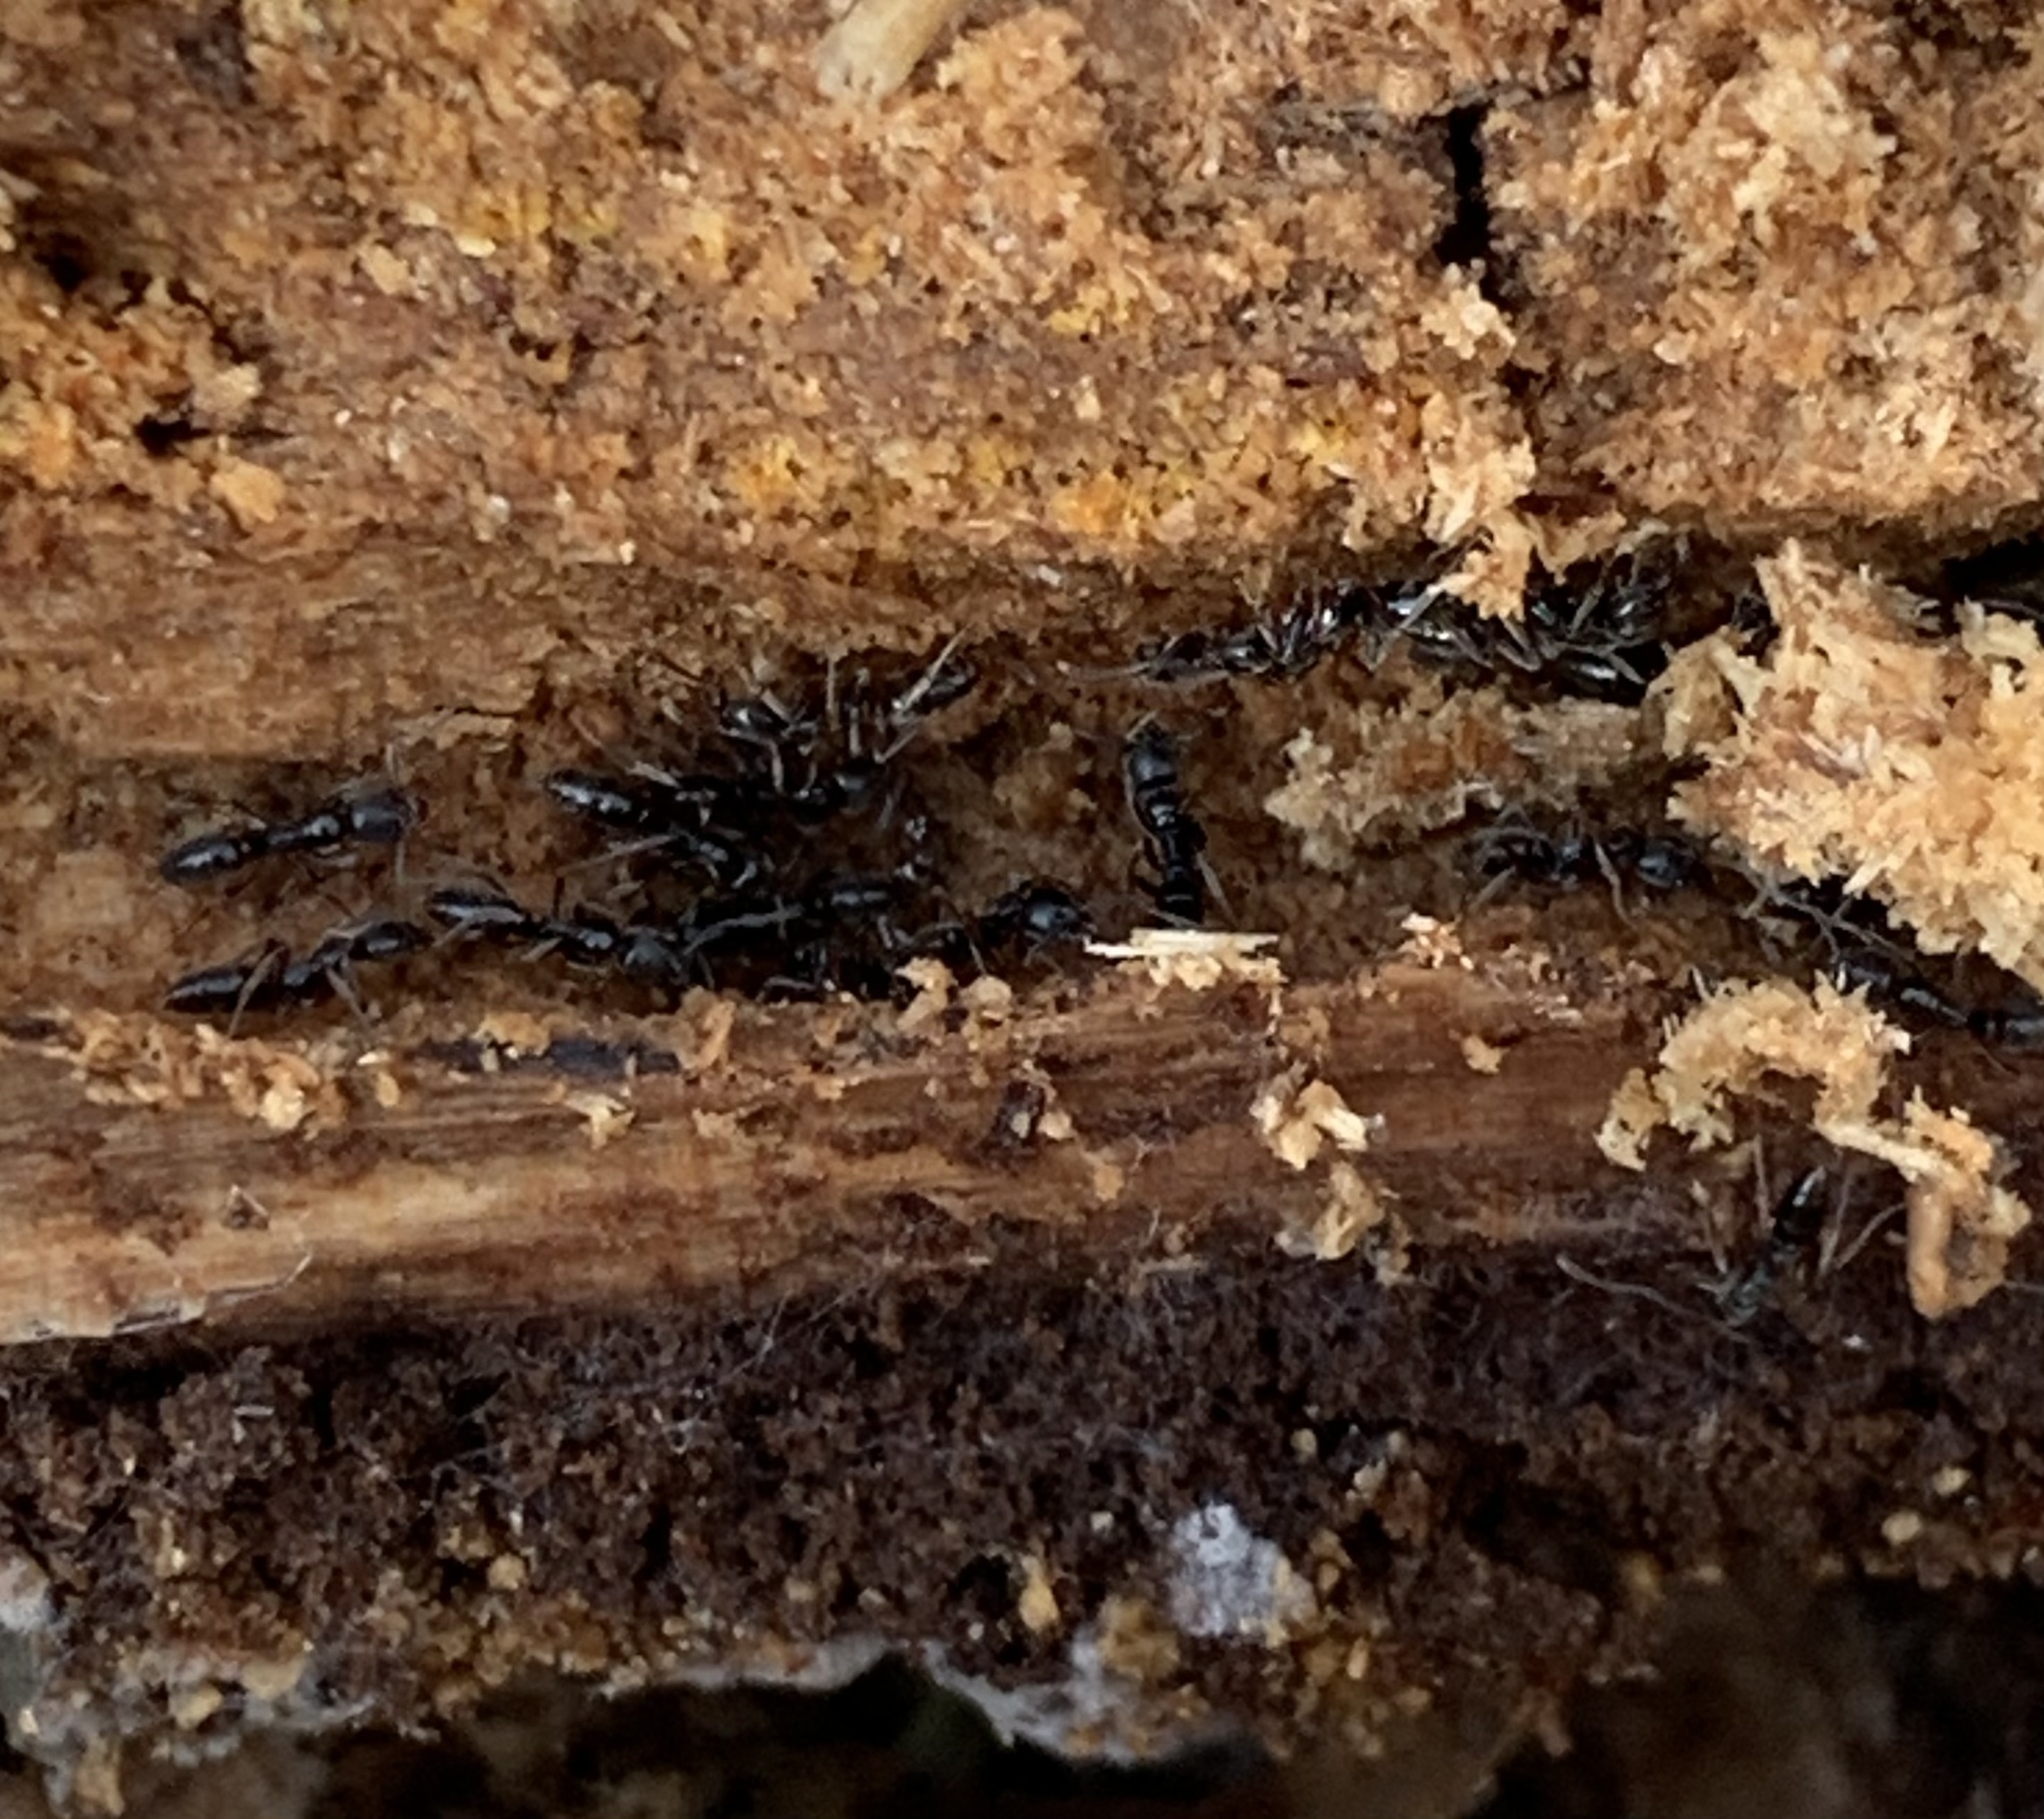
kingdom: Animalia
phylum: Arthropoda
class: Insecta
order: Hymenoptera
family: Formicidae
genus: Pachycondyla
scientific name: Pachycondyla chinensis
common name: Asian needle ant
